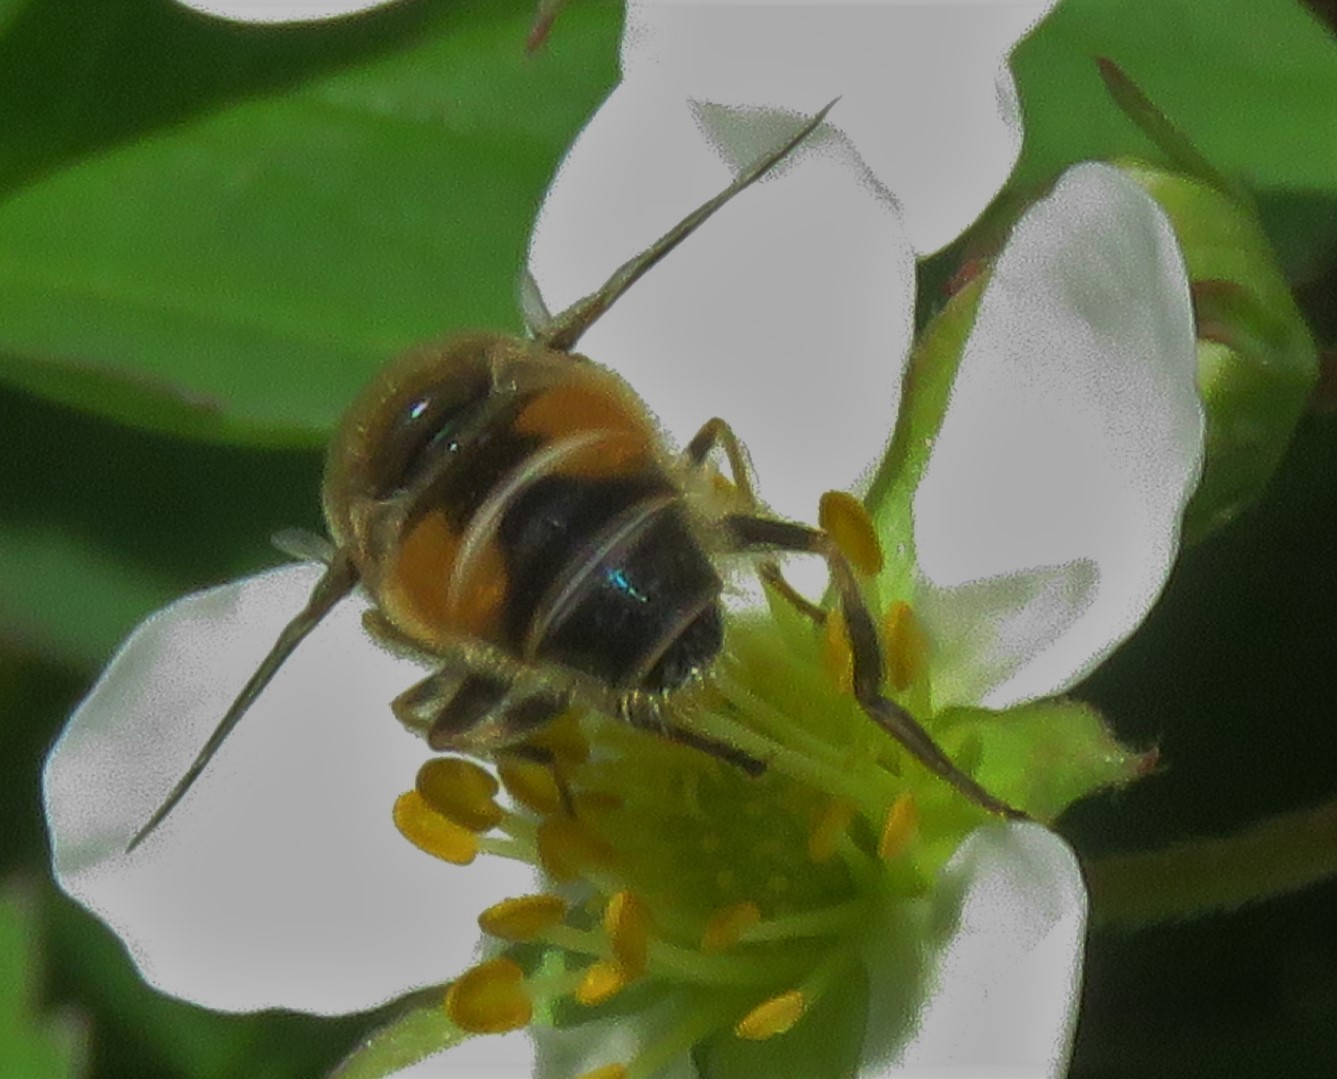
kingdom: Animalia
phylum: Arthropoda
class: Insecta
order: Diptera
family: Syrphidae
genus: Eristalis
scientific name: Eristalis arbustorum
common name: Hover fly
